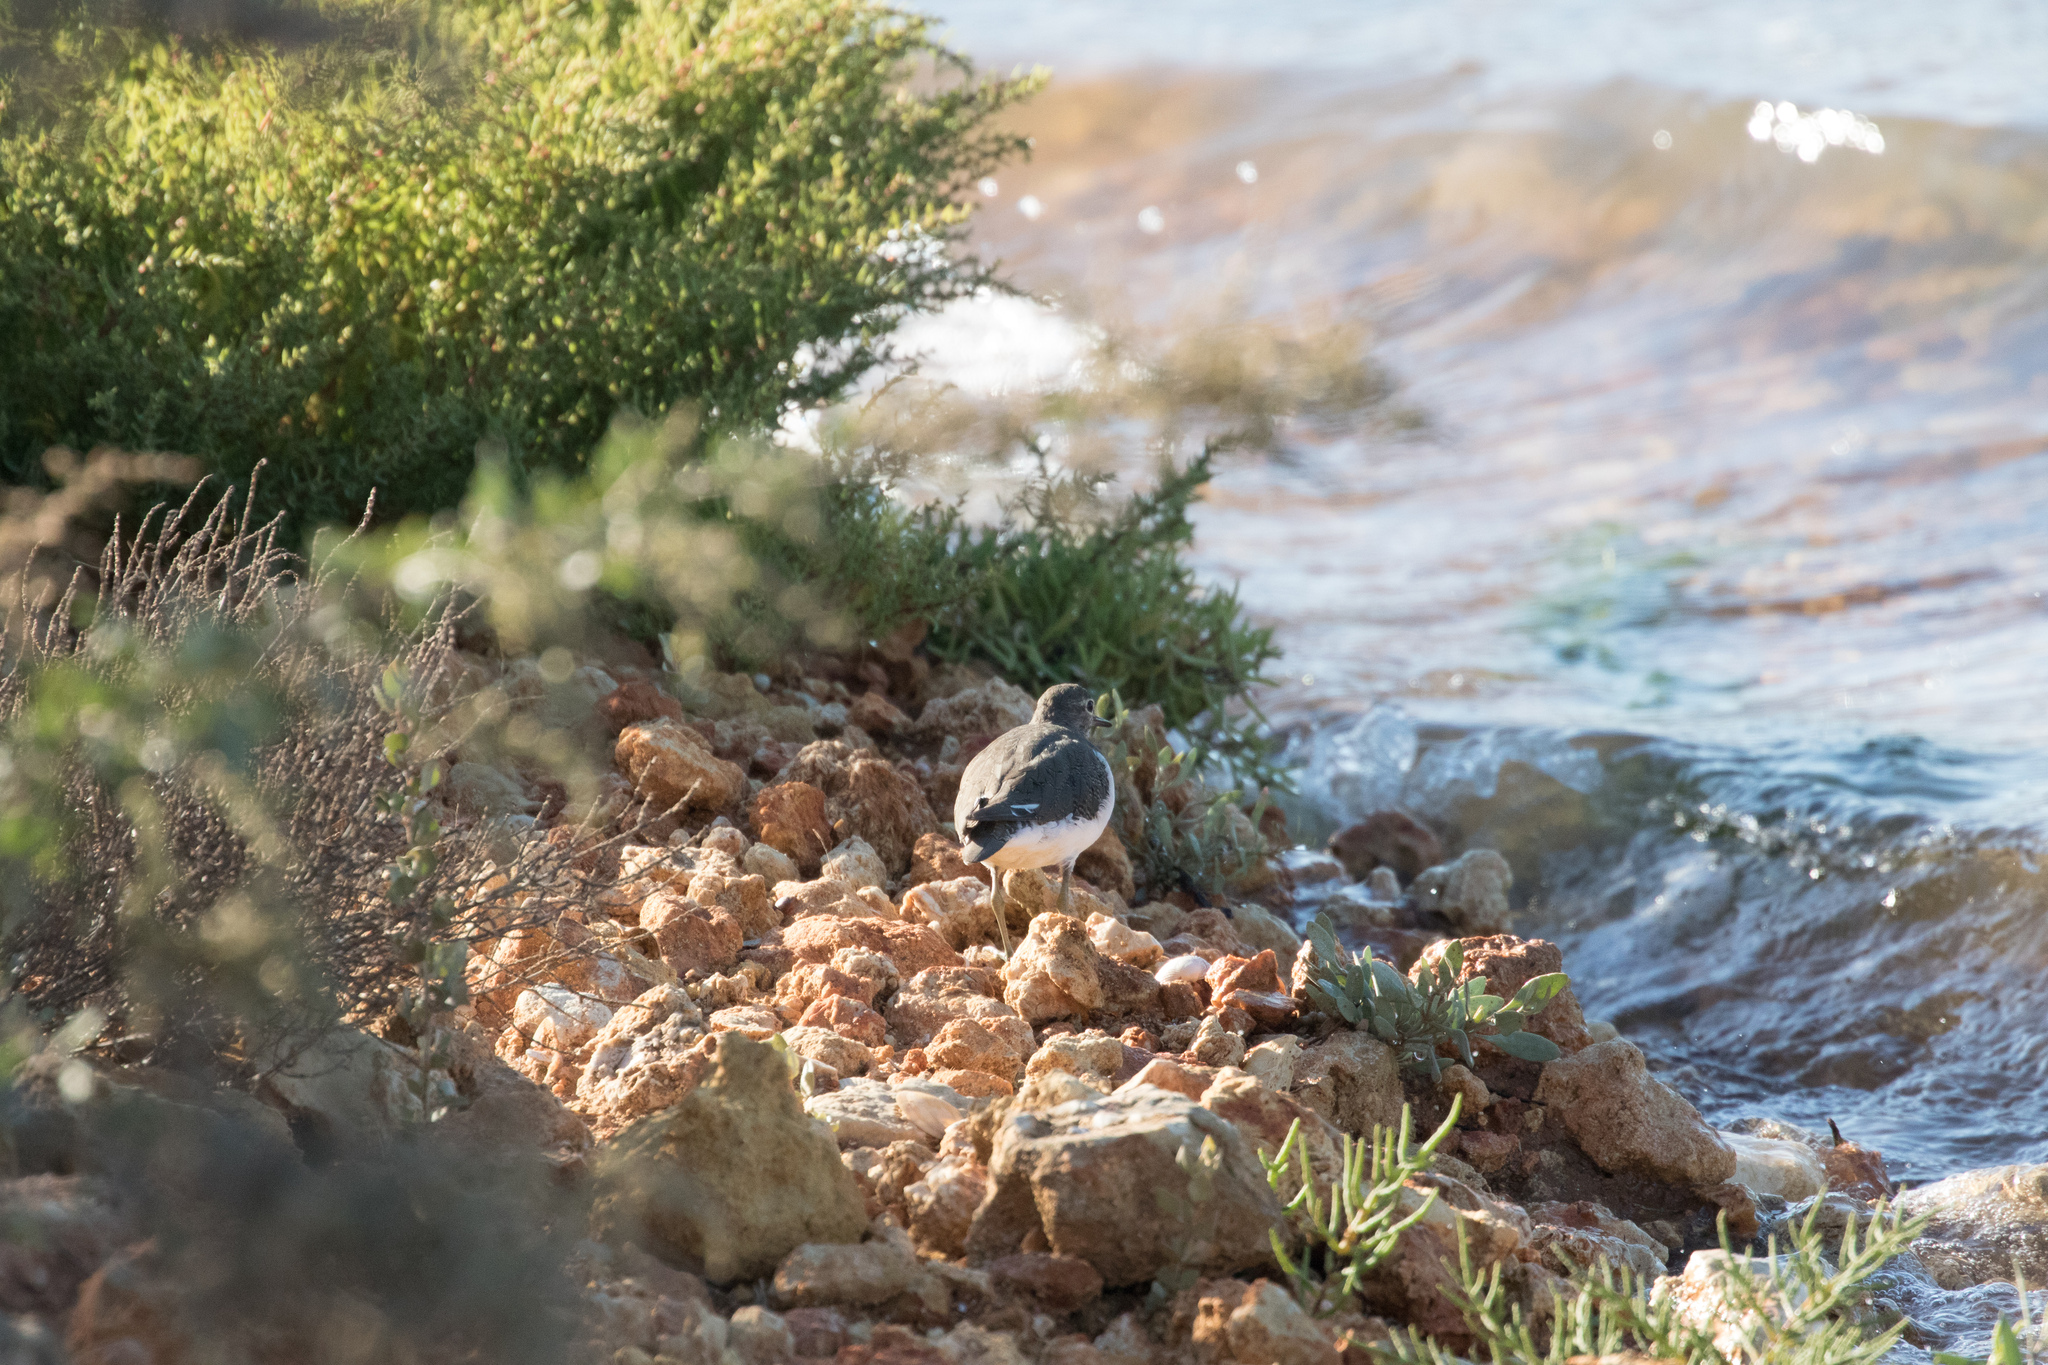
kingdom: Animalia
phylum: Chordata
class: Aves
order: Charadriiformes
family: Scolopacidae
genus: Actitis
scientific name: Actitis hypoleucos
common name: Common sandpiper
